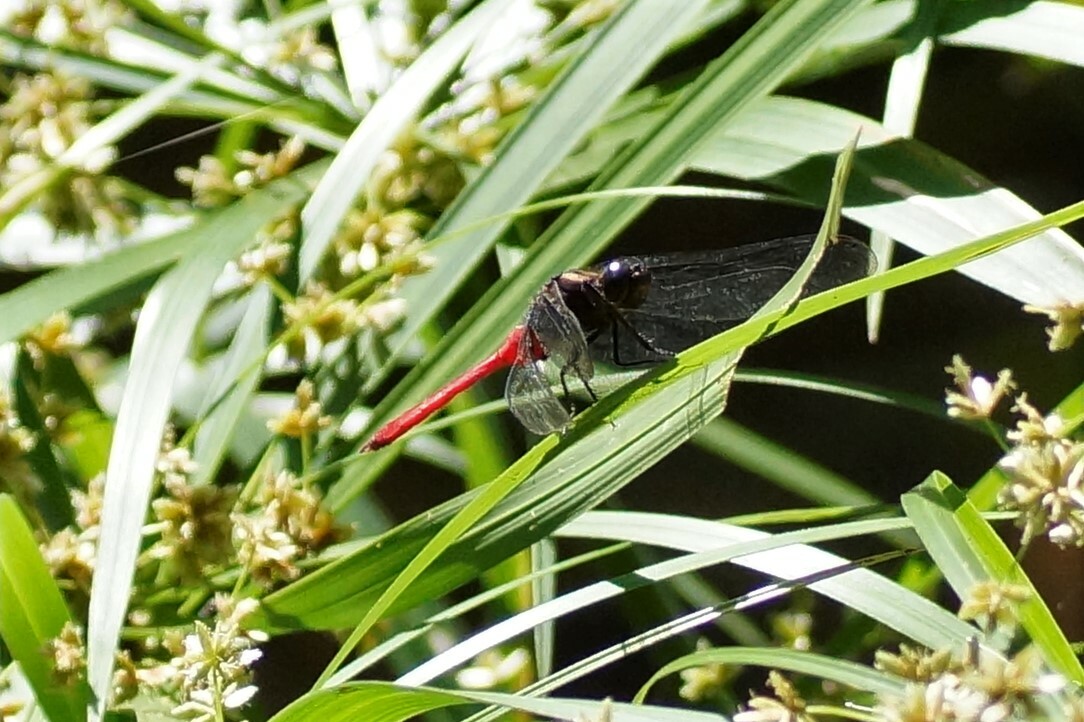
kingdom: Animalia
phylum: Arthropoda
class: Insecta
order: Odonata
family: Libellulidae
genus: Orthetrum
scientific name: Orthetrum villosovittatum
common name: Firery skimmer
